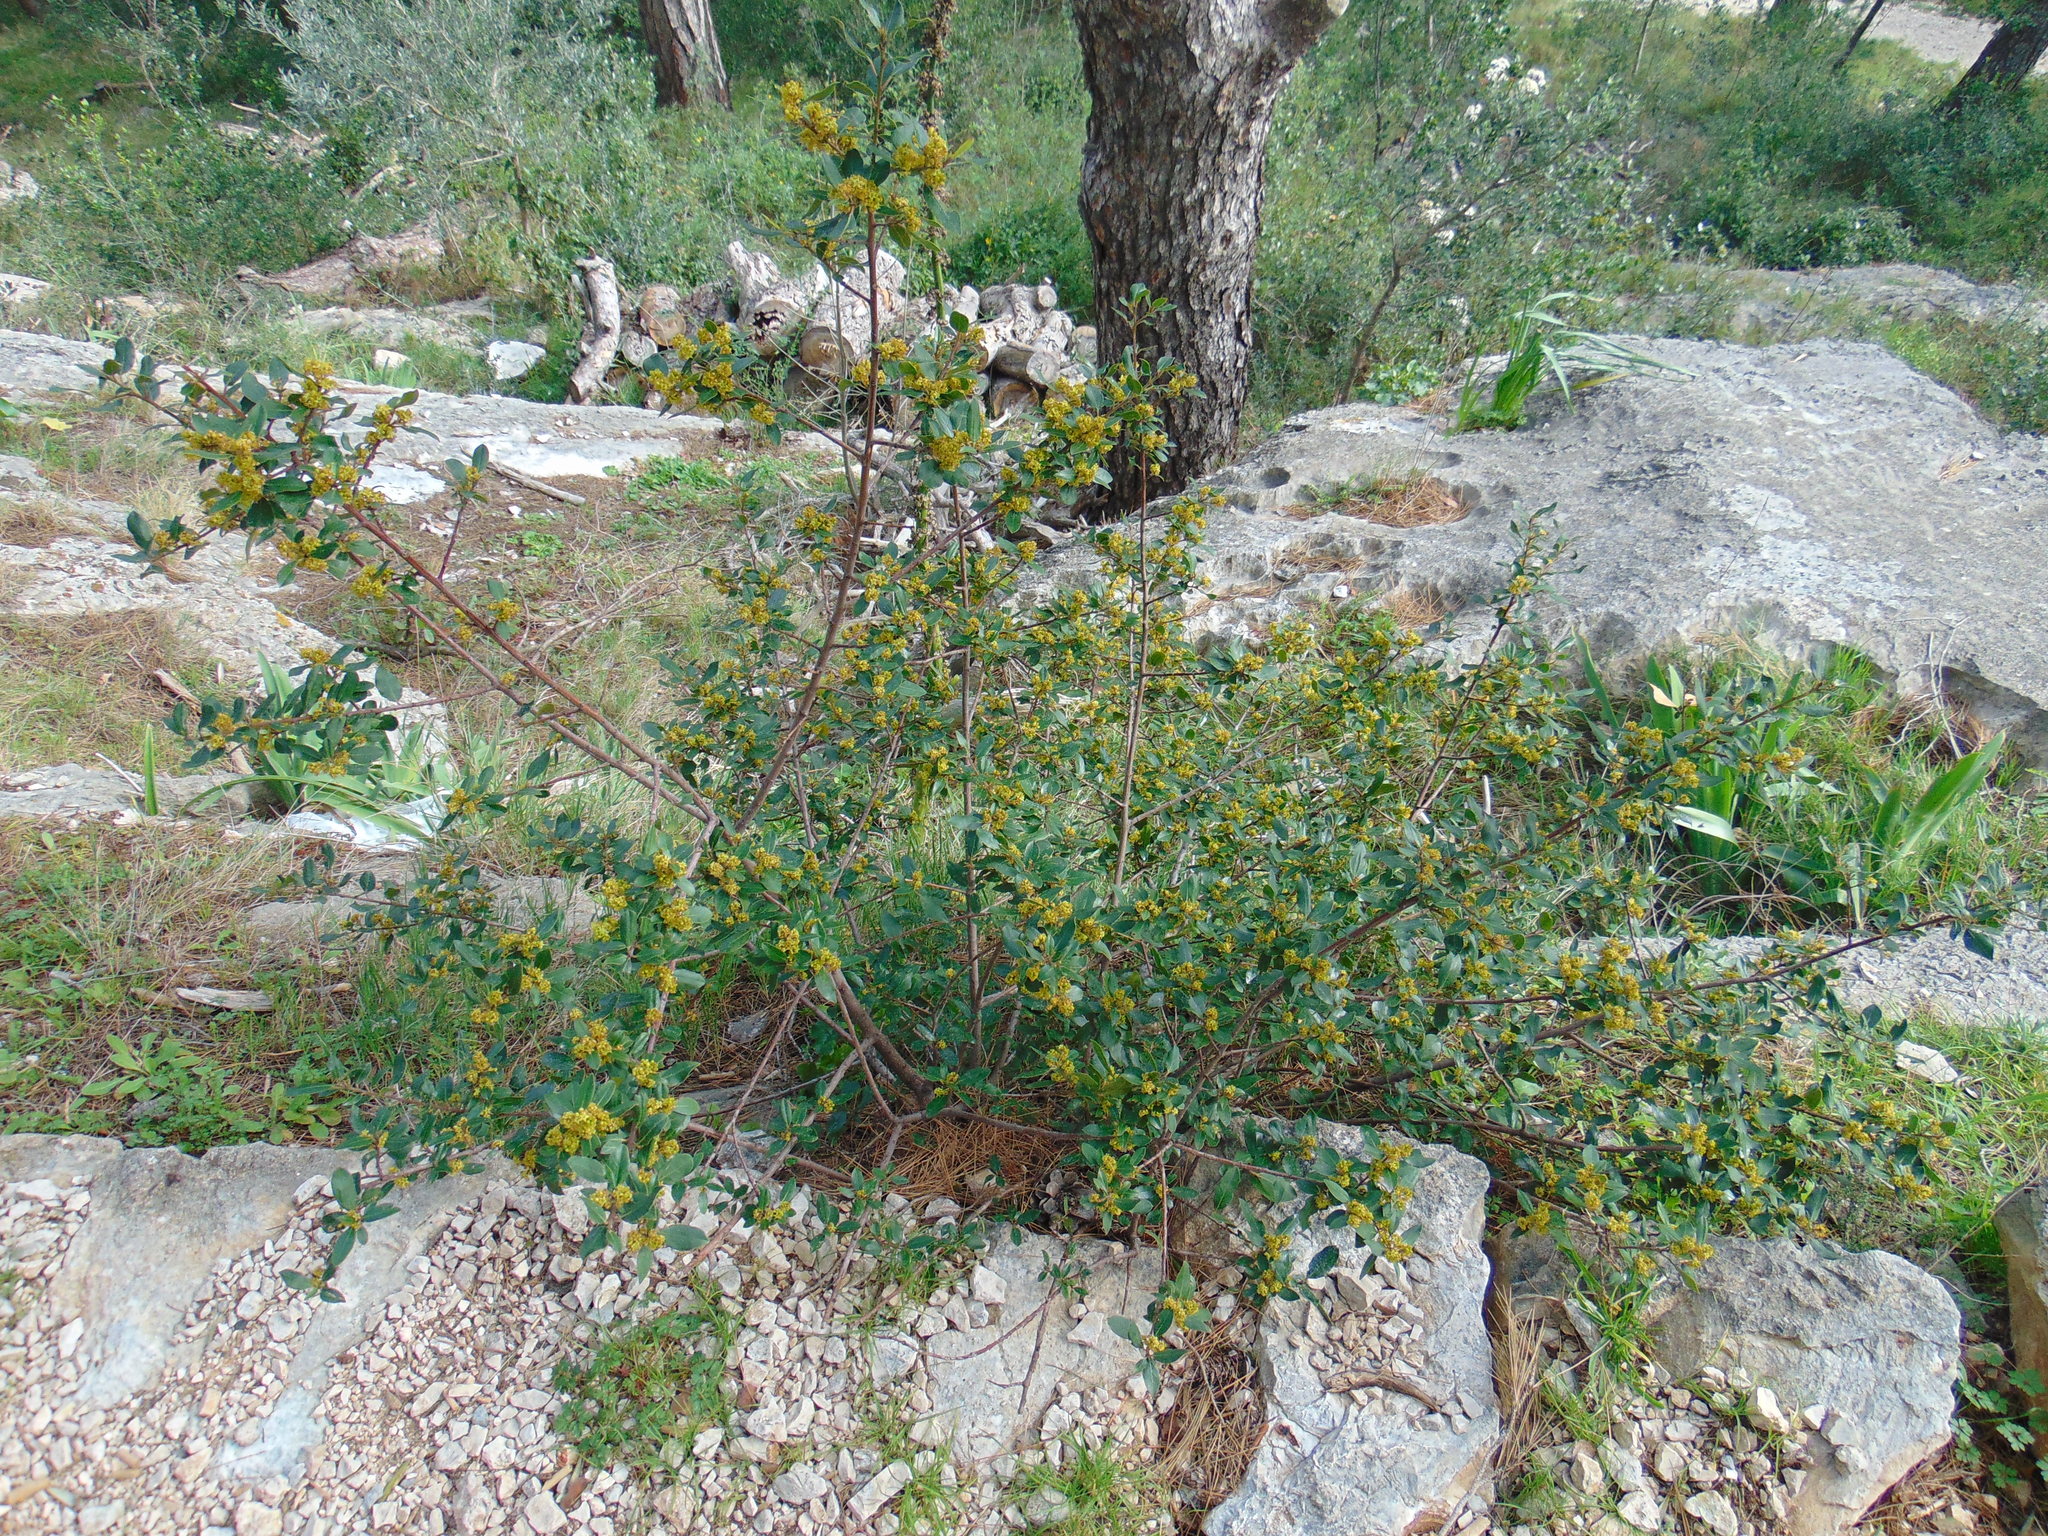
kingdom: Plantae
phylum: Tracheophyta
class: Magnoliopsida
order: Rosales
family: Rhamnaceae
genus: Rhamnus
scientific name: Rhamnus alaternus
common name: Mediterranean buckthorn
